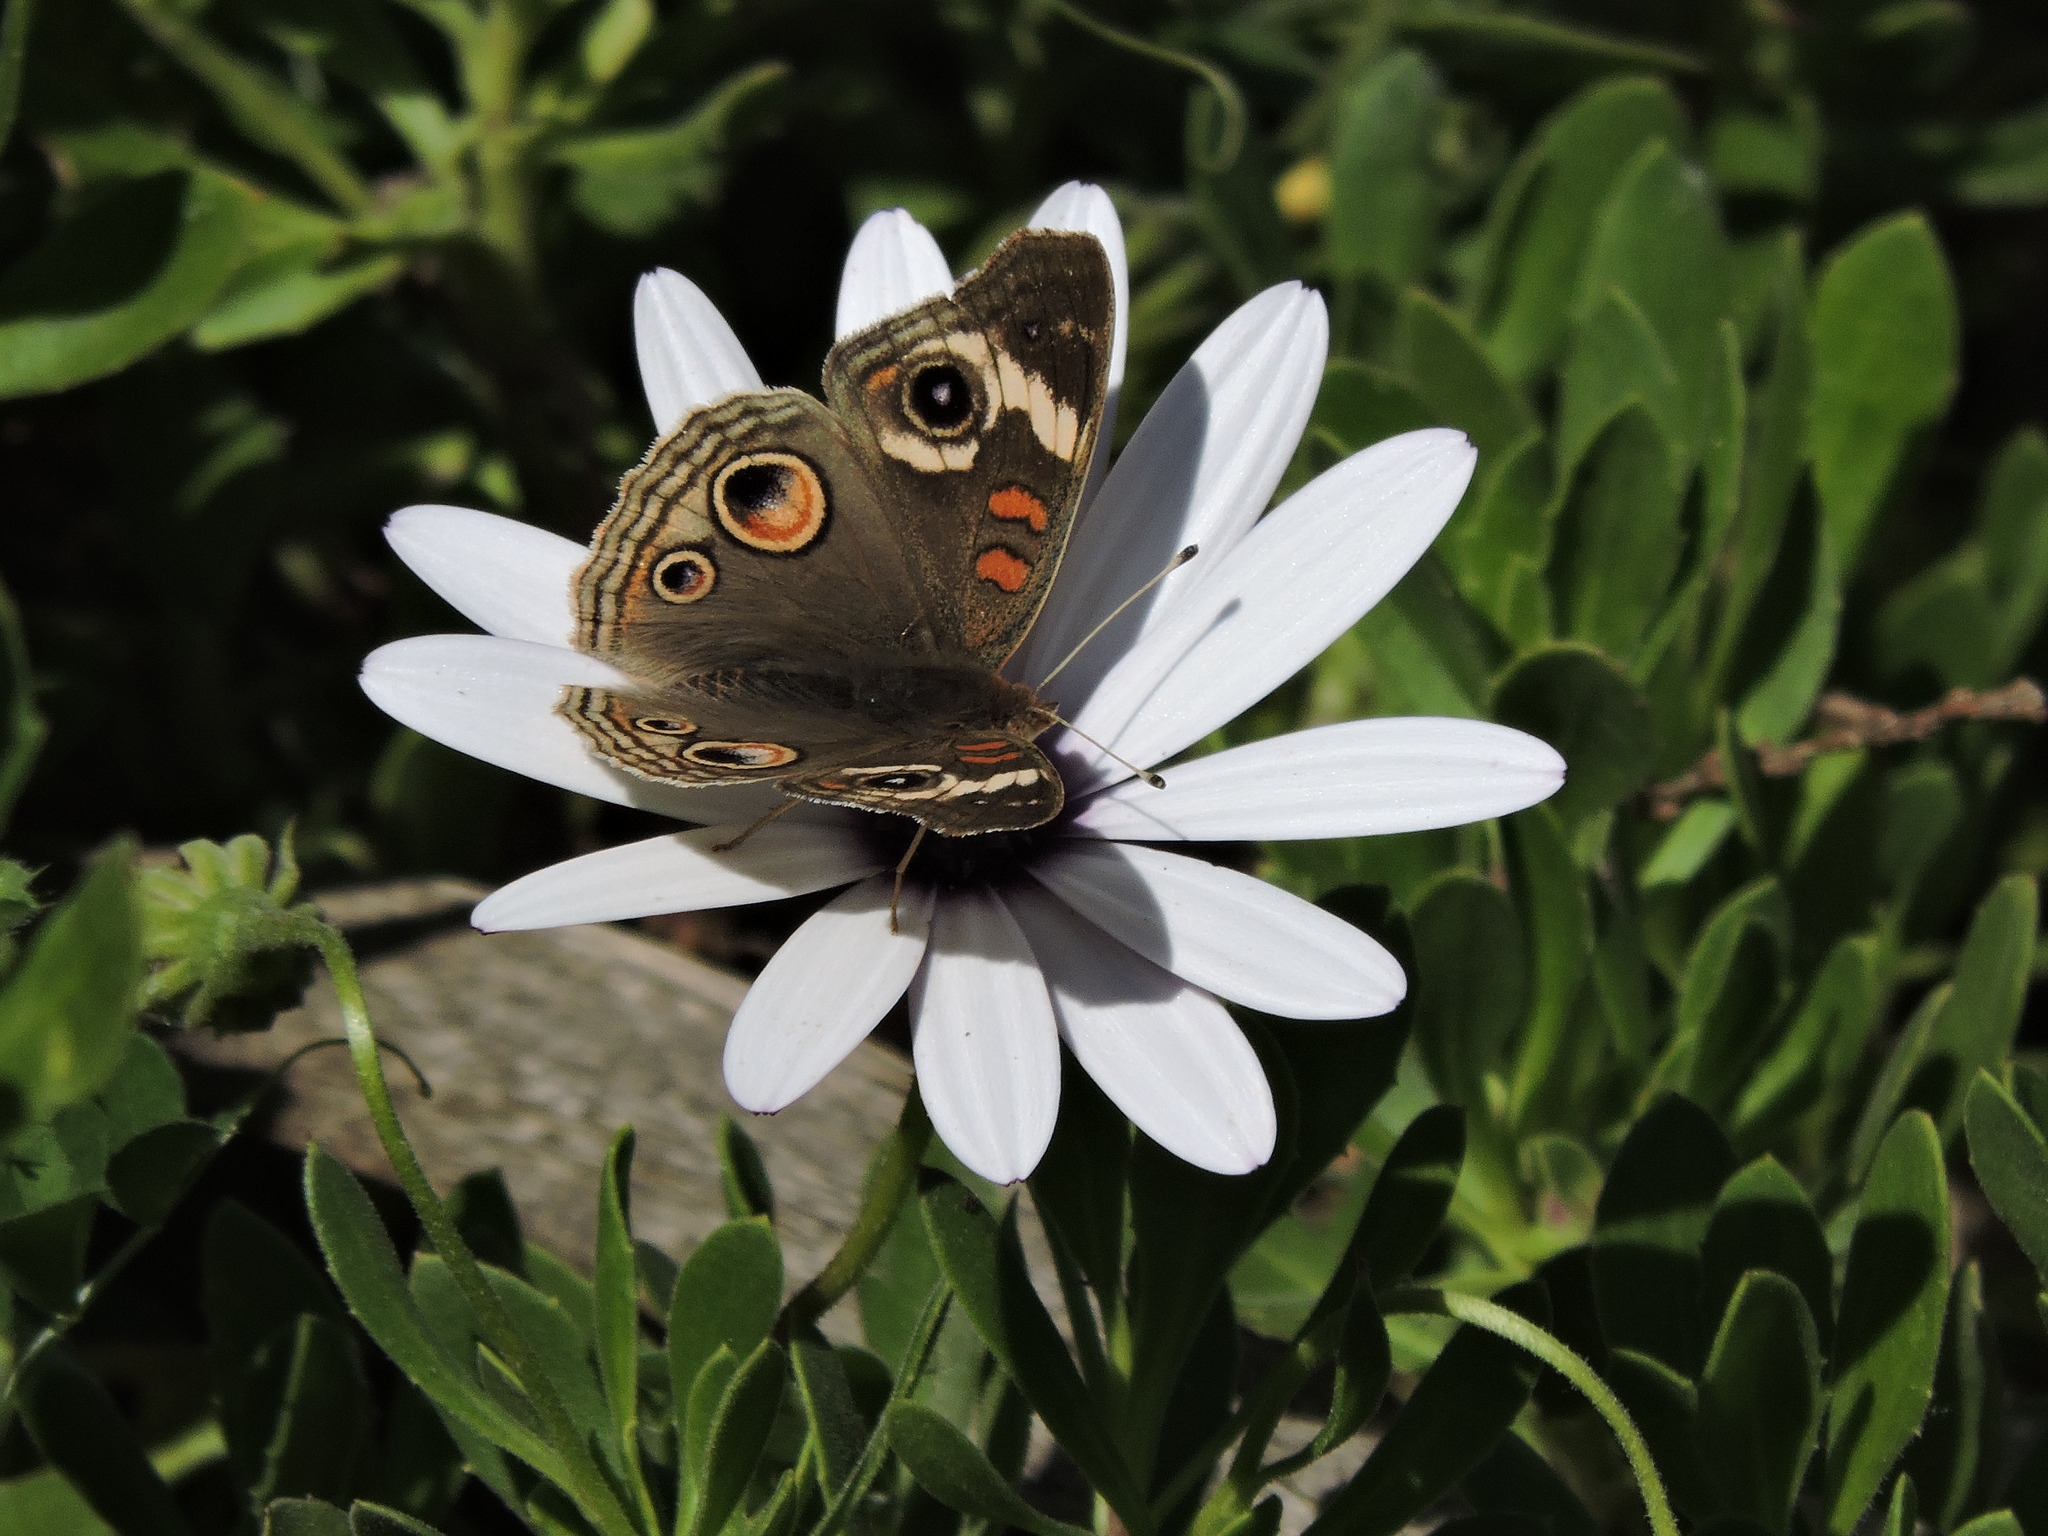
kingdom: Animalia
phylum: Arthropoda
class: Insecta
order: Lepidoptera
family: Nymphalidae
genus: Junonia
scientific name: Junonia grisea
